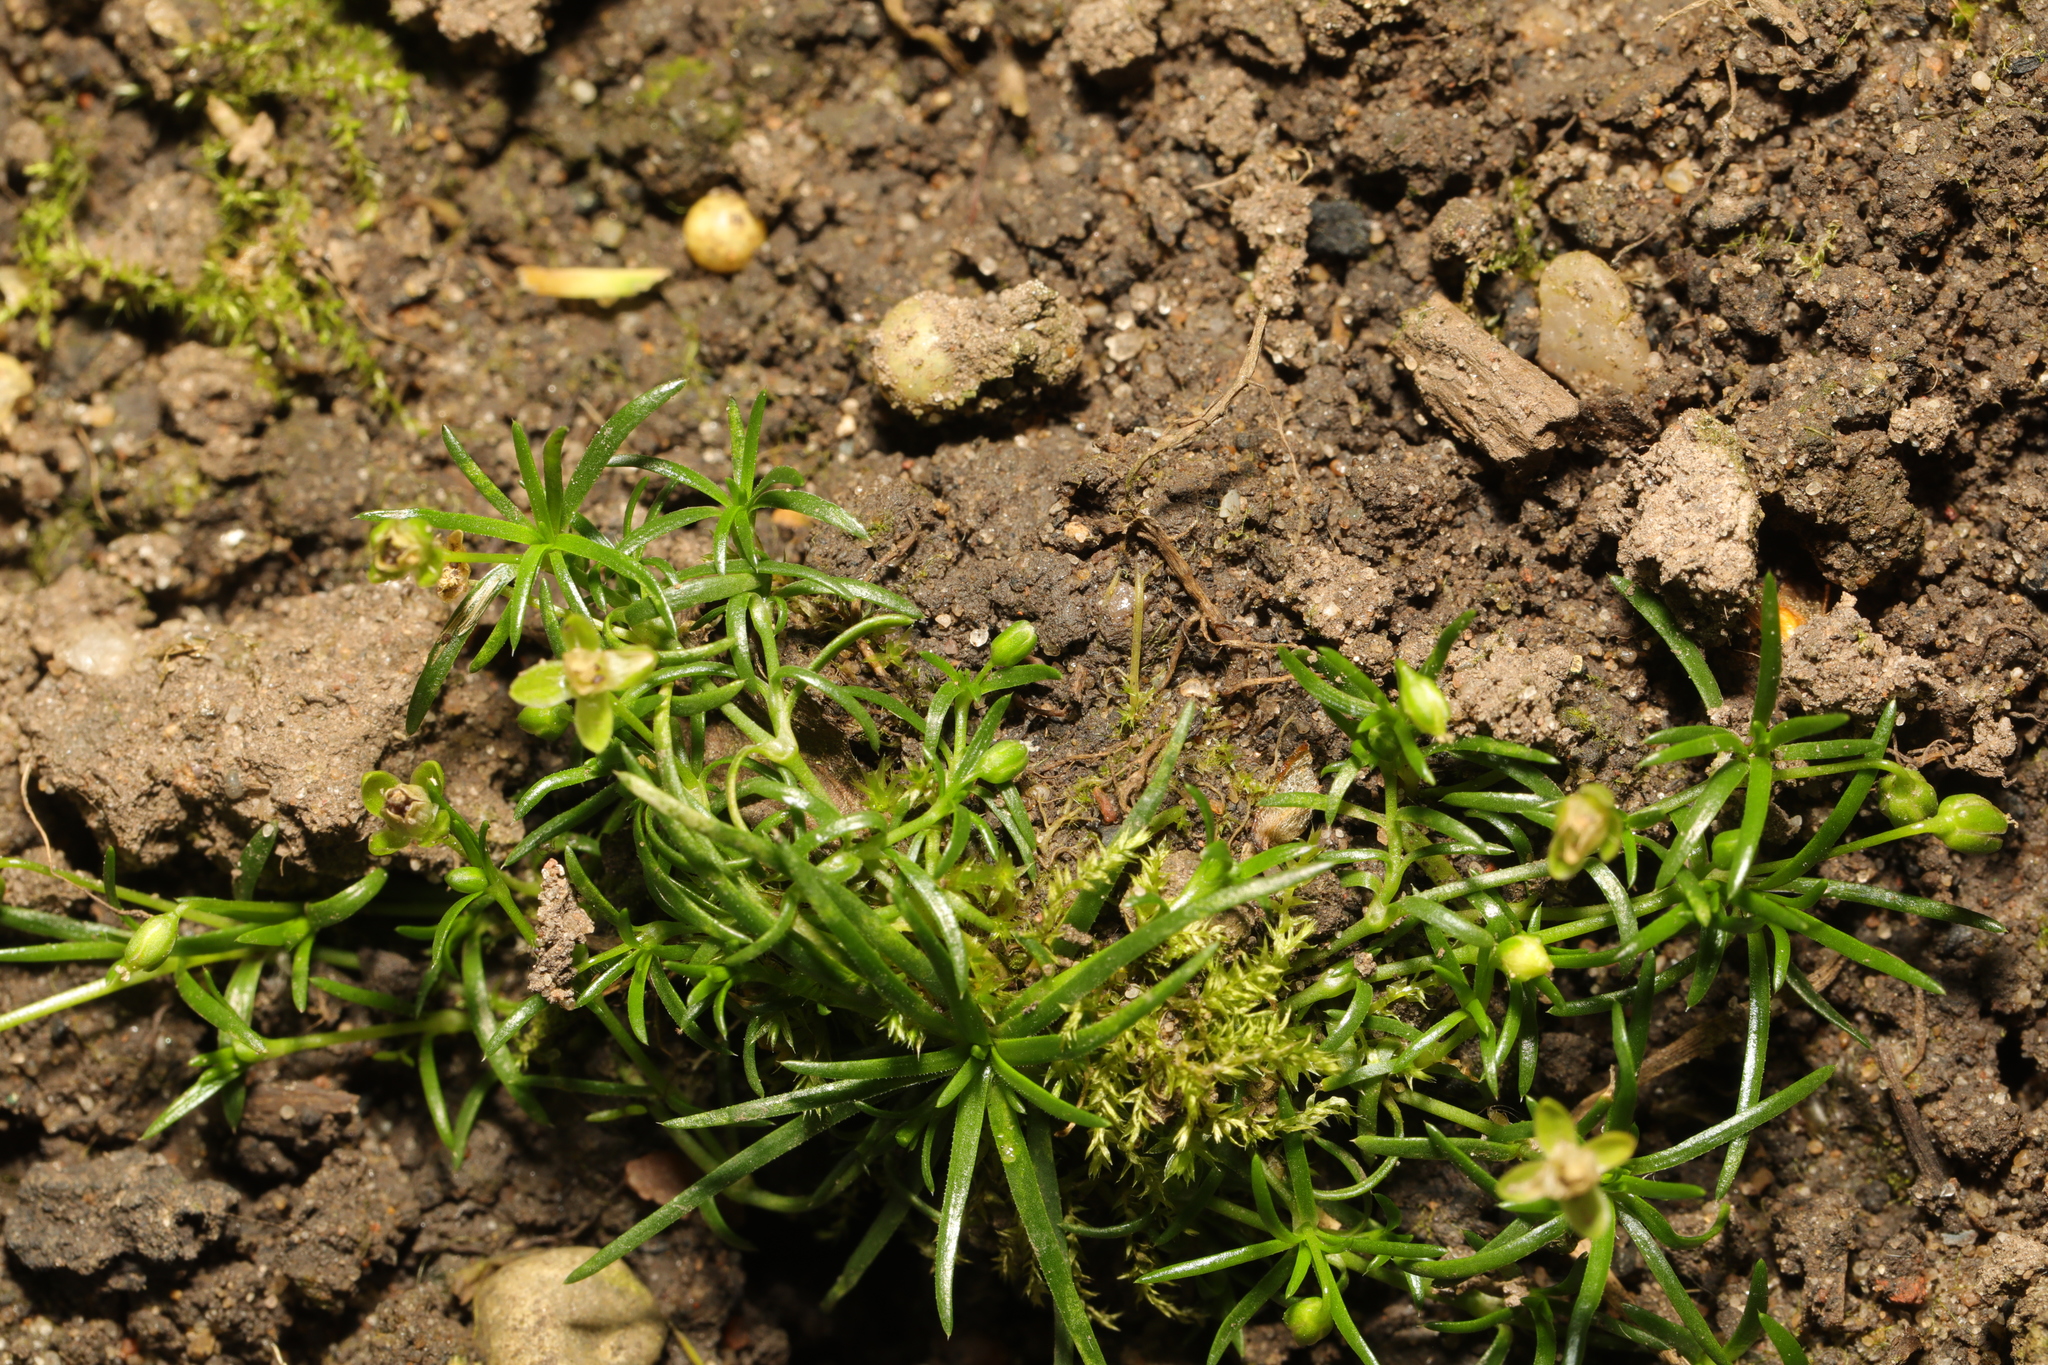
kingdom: Plantae
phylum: Tracheophyta
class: Magnoliopsida
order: Caryophyllales
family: Caryophyllaceae
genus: Sagina
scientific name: Sagina procumbens
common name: Procumbent pearlwort
